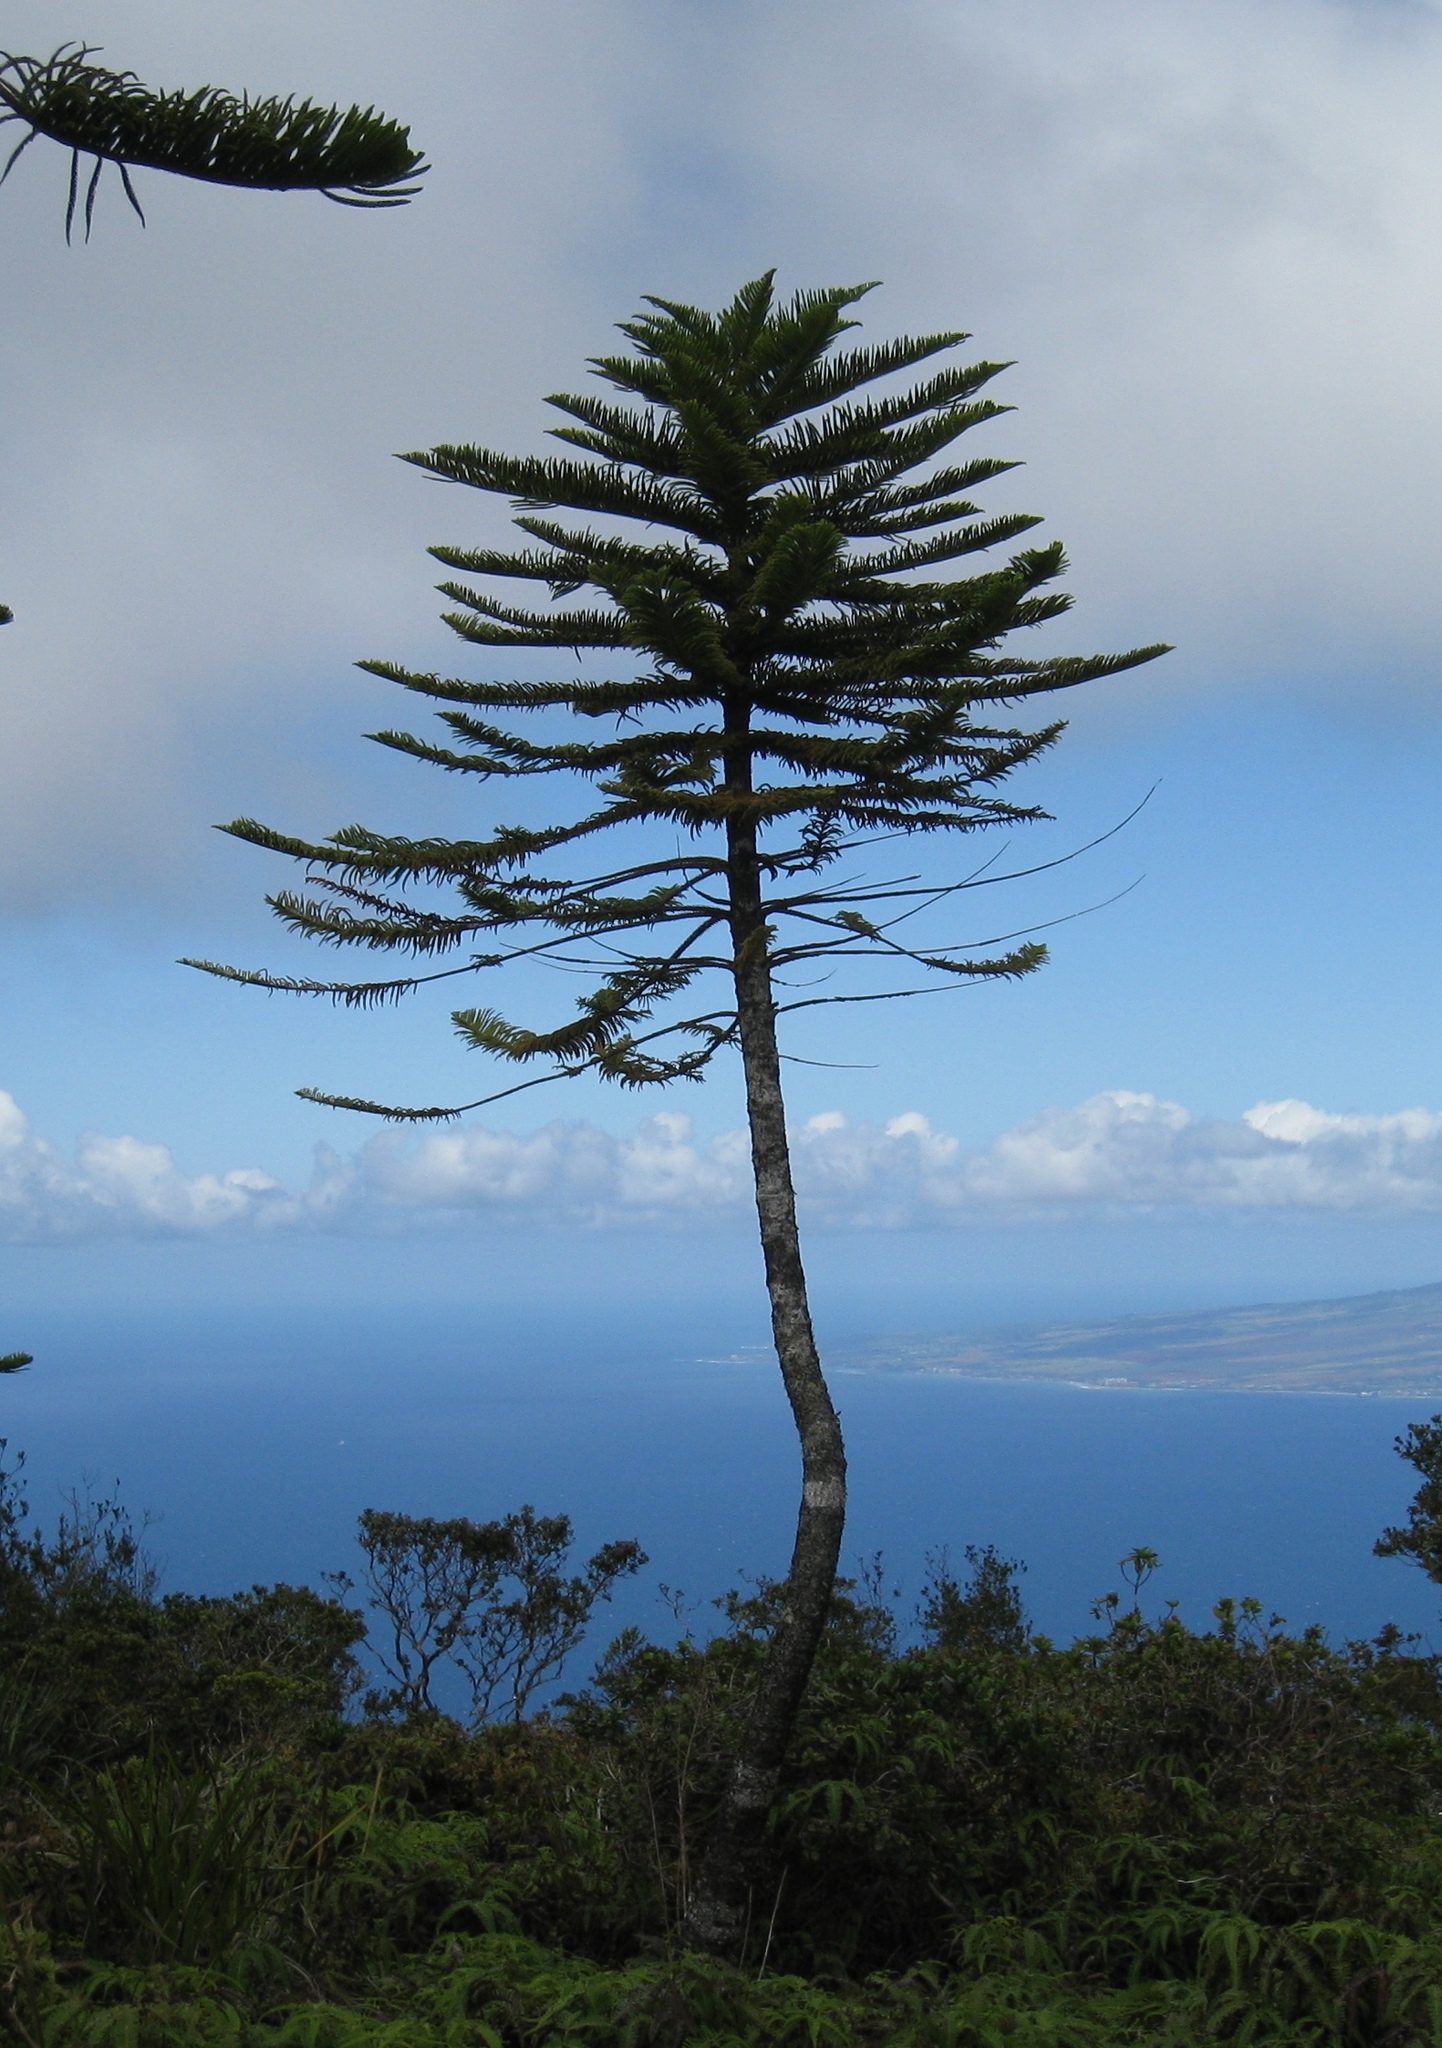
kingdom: Plantae
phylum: Tracheophyta
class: Pinopsida
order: Pinales
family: Araucariaceae
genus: Araucaria
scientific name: Araucaria columnaris
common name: Coral reef araucaria
